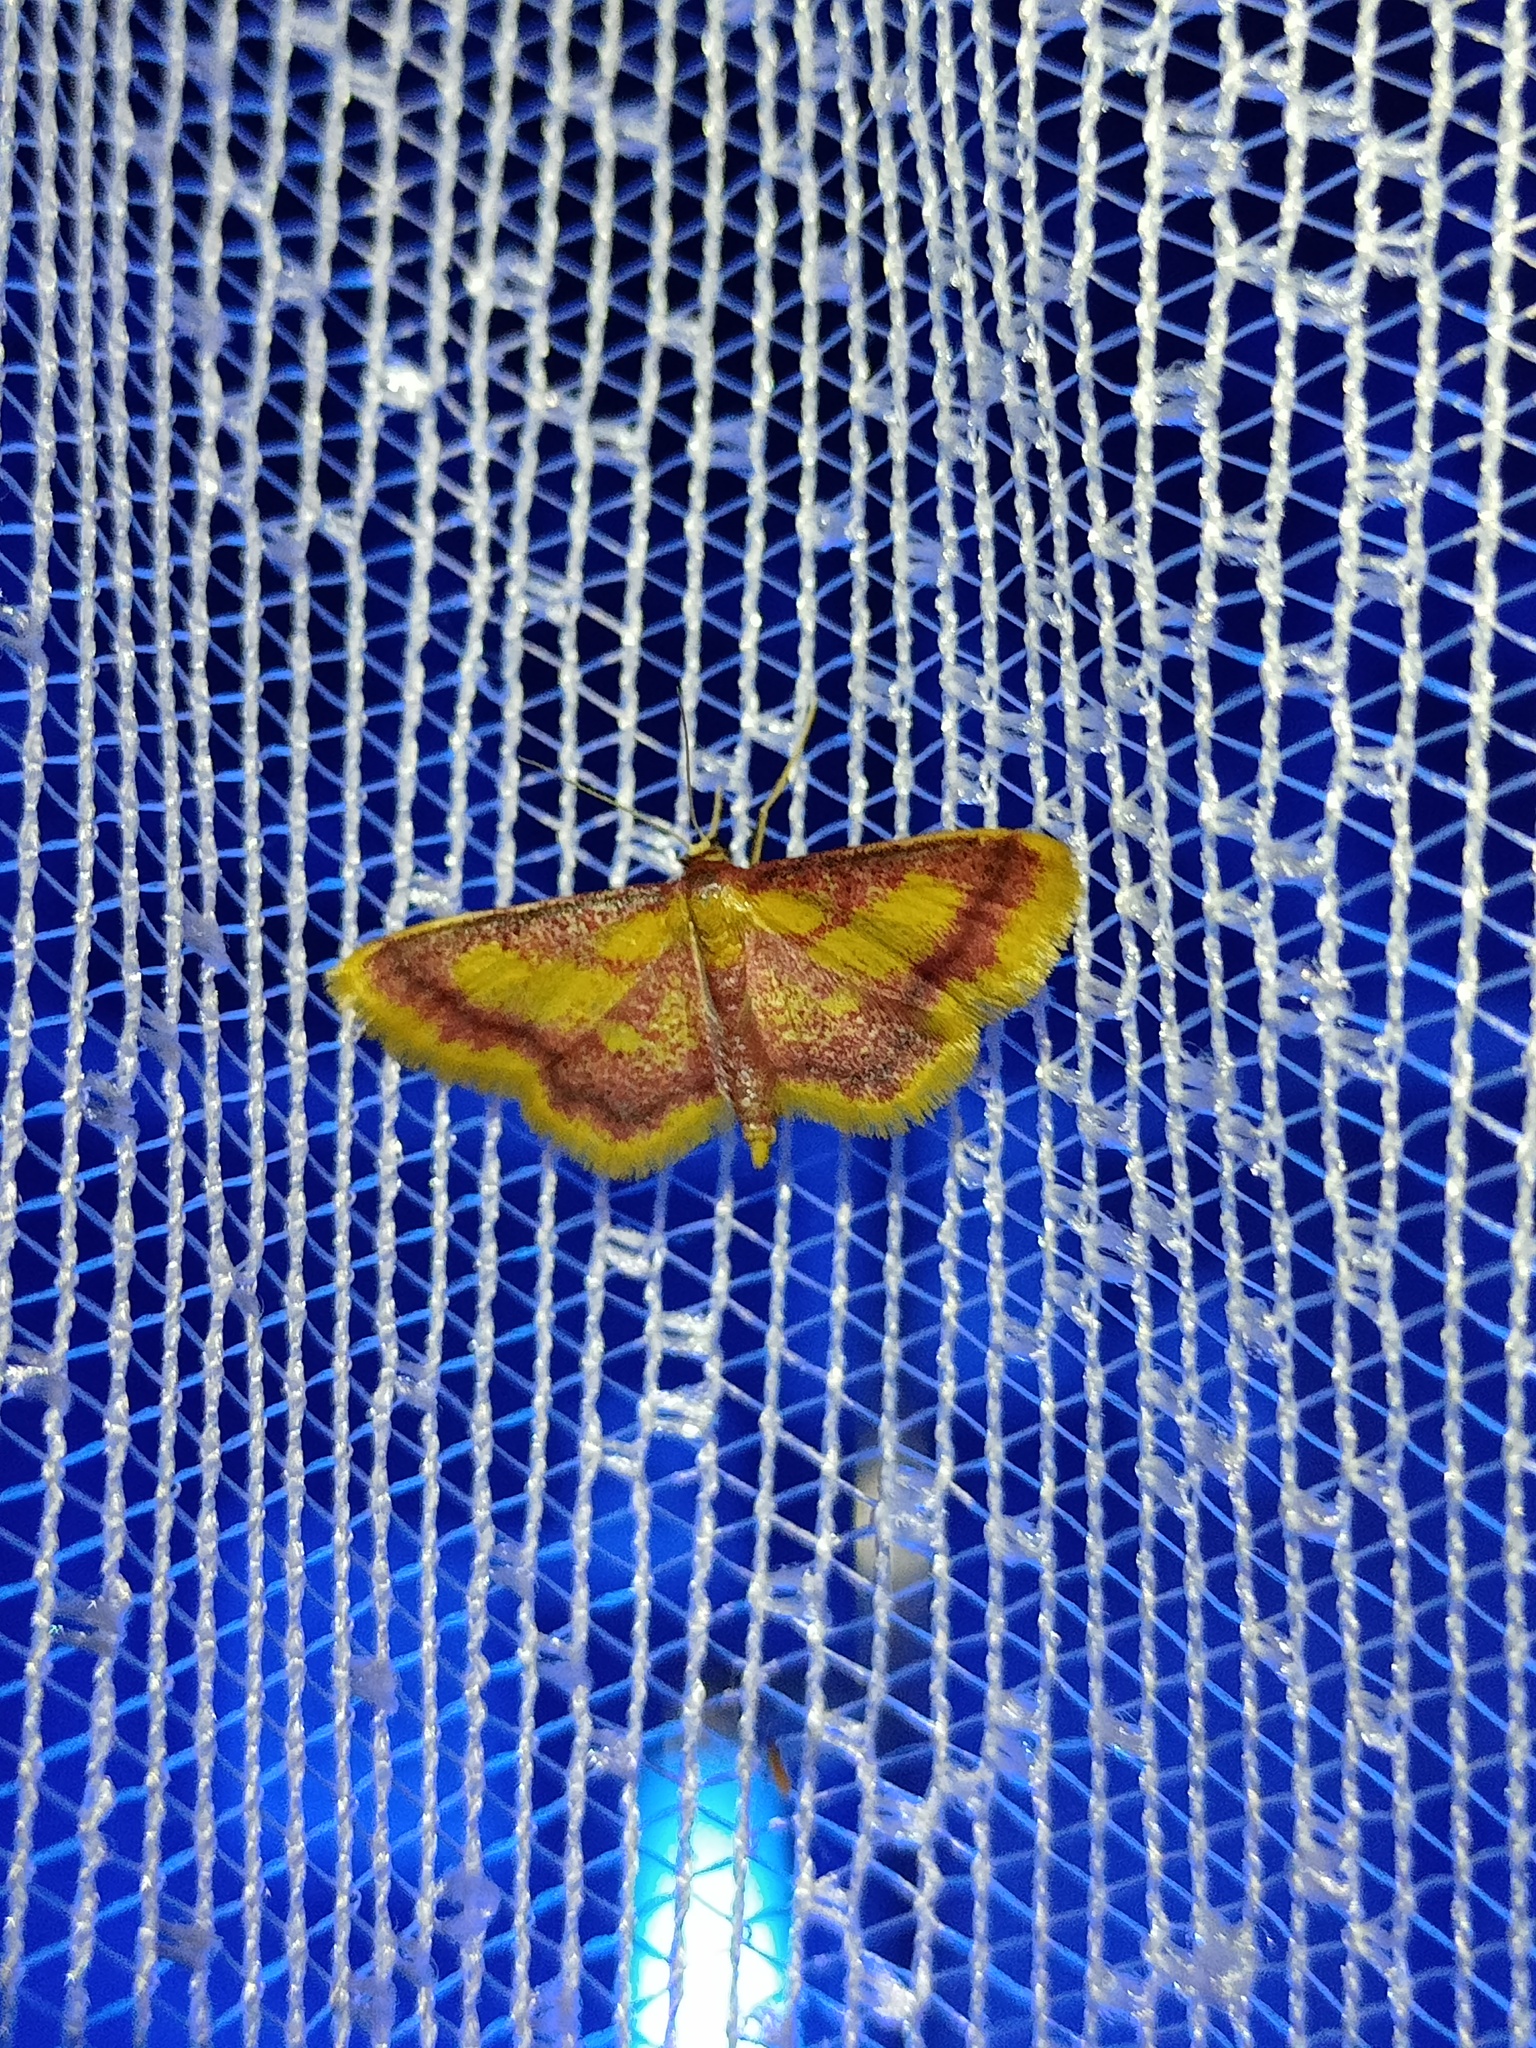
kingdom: Animalia
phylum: Arthropoda
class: Insecta
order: Lepidoptera
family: Geometridae
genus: Idaea
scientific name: Idaea muricata
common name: Purple-bordered gold
